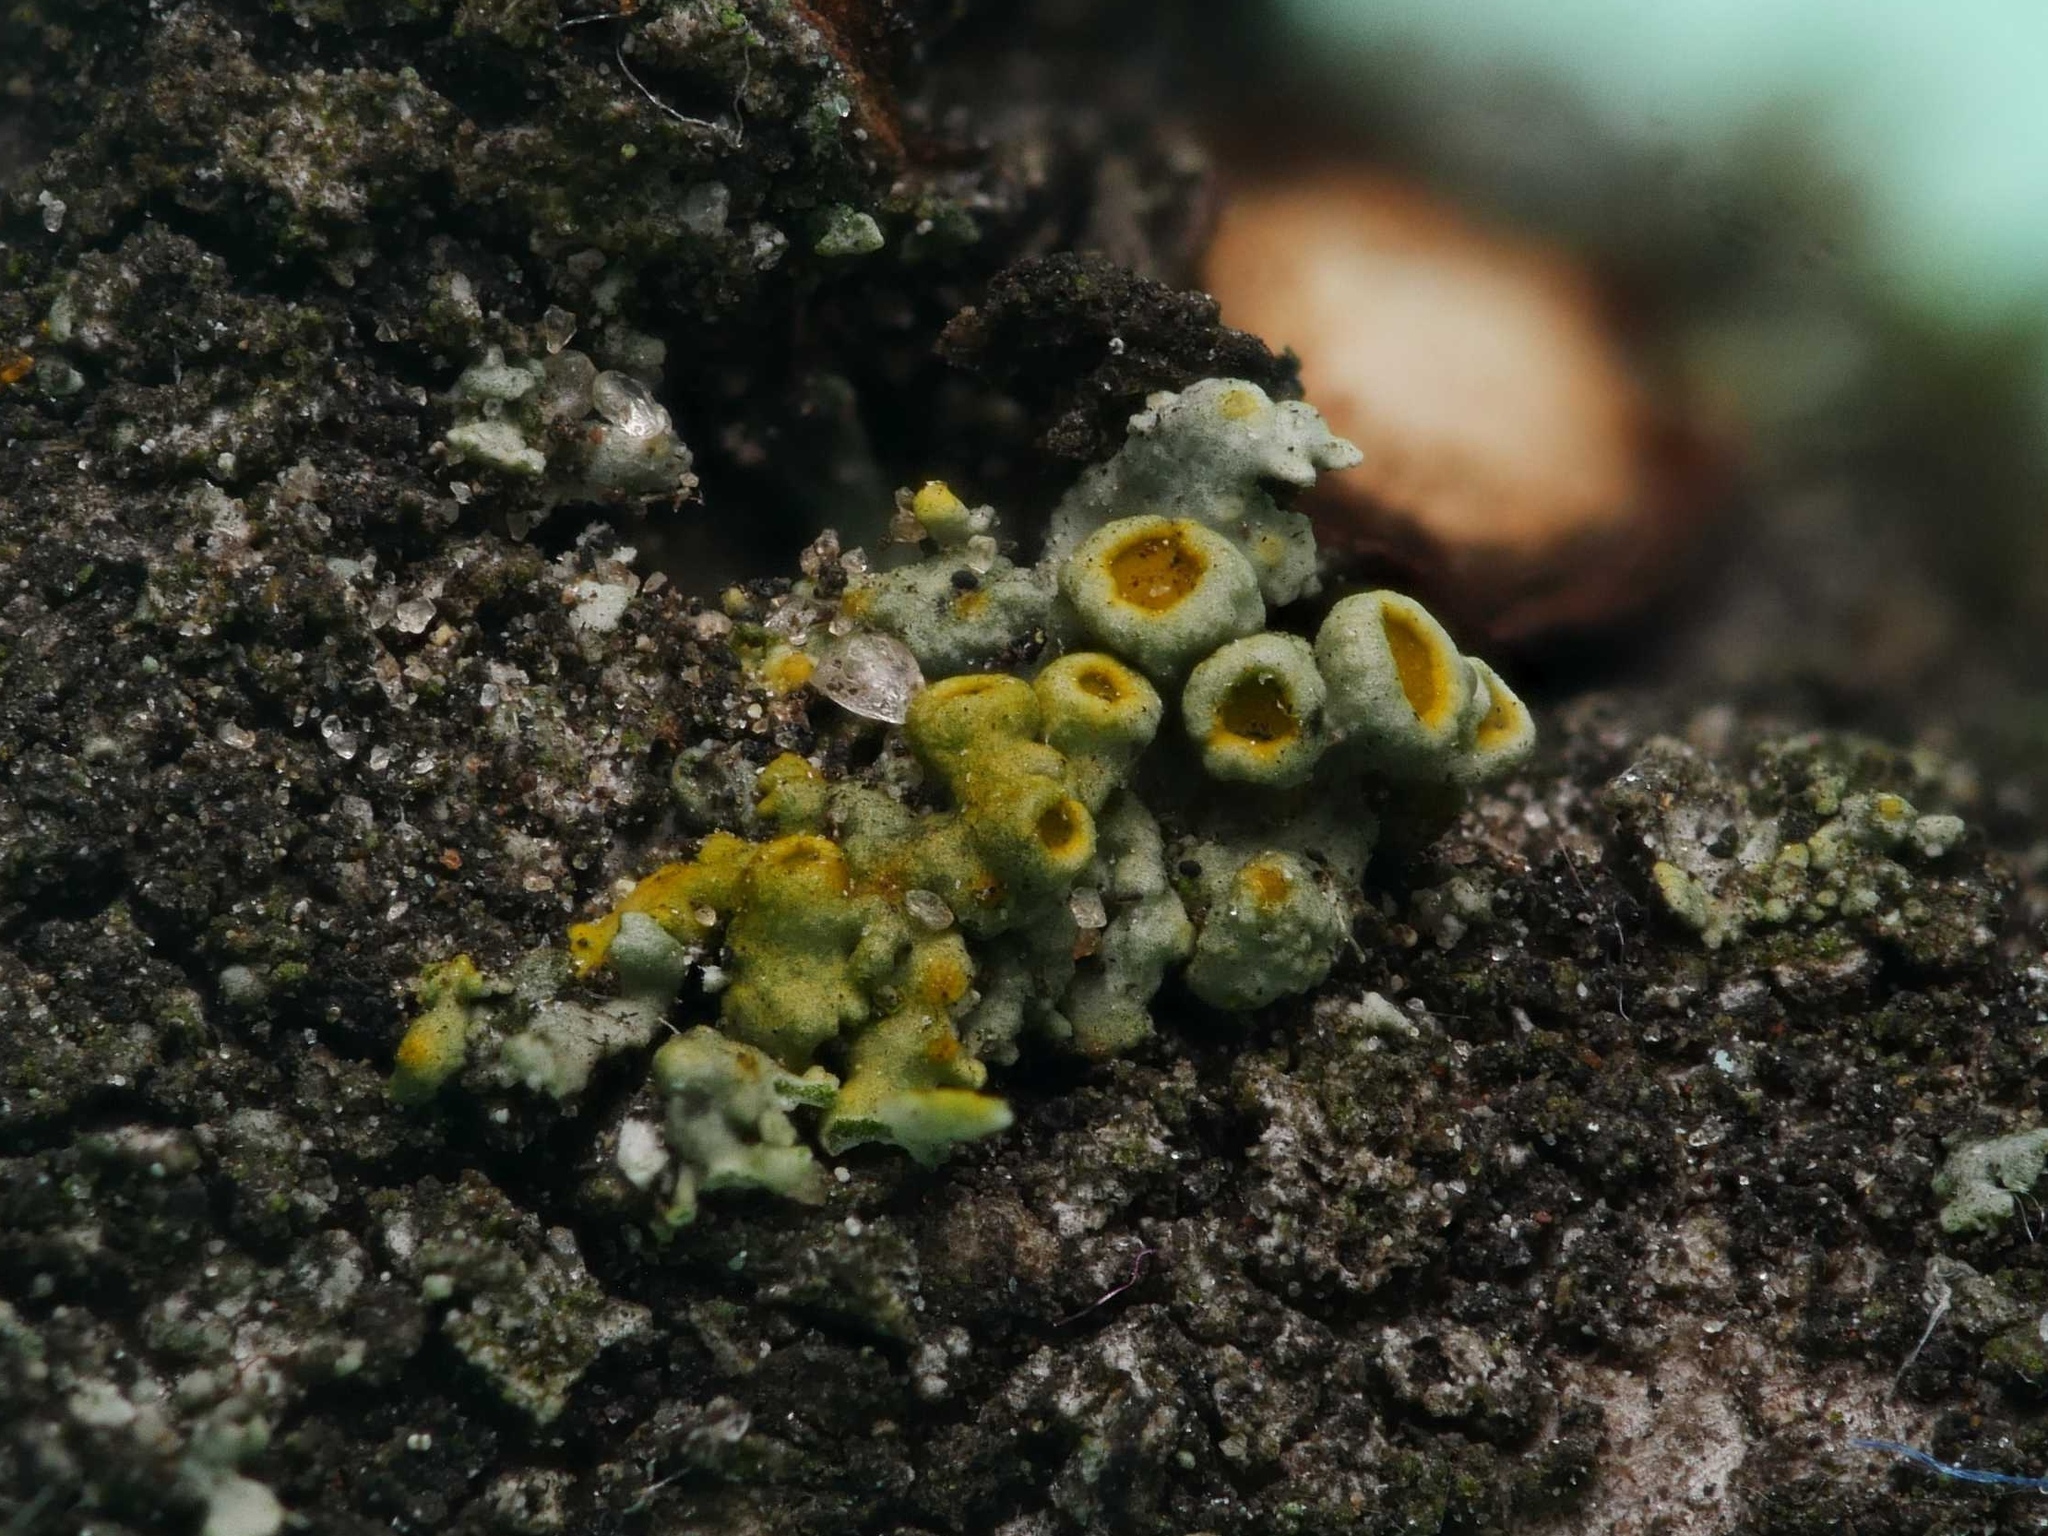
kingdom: Fungi
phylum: Ascomycota
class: Lecanoromycetes
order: Teloschistales
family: Teloschistaceae
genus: Polycauliona
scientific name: Polycauliona polycarpa
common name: Pin-cushion sunburst lichen
